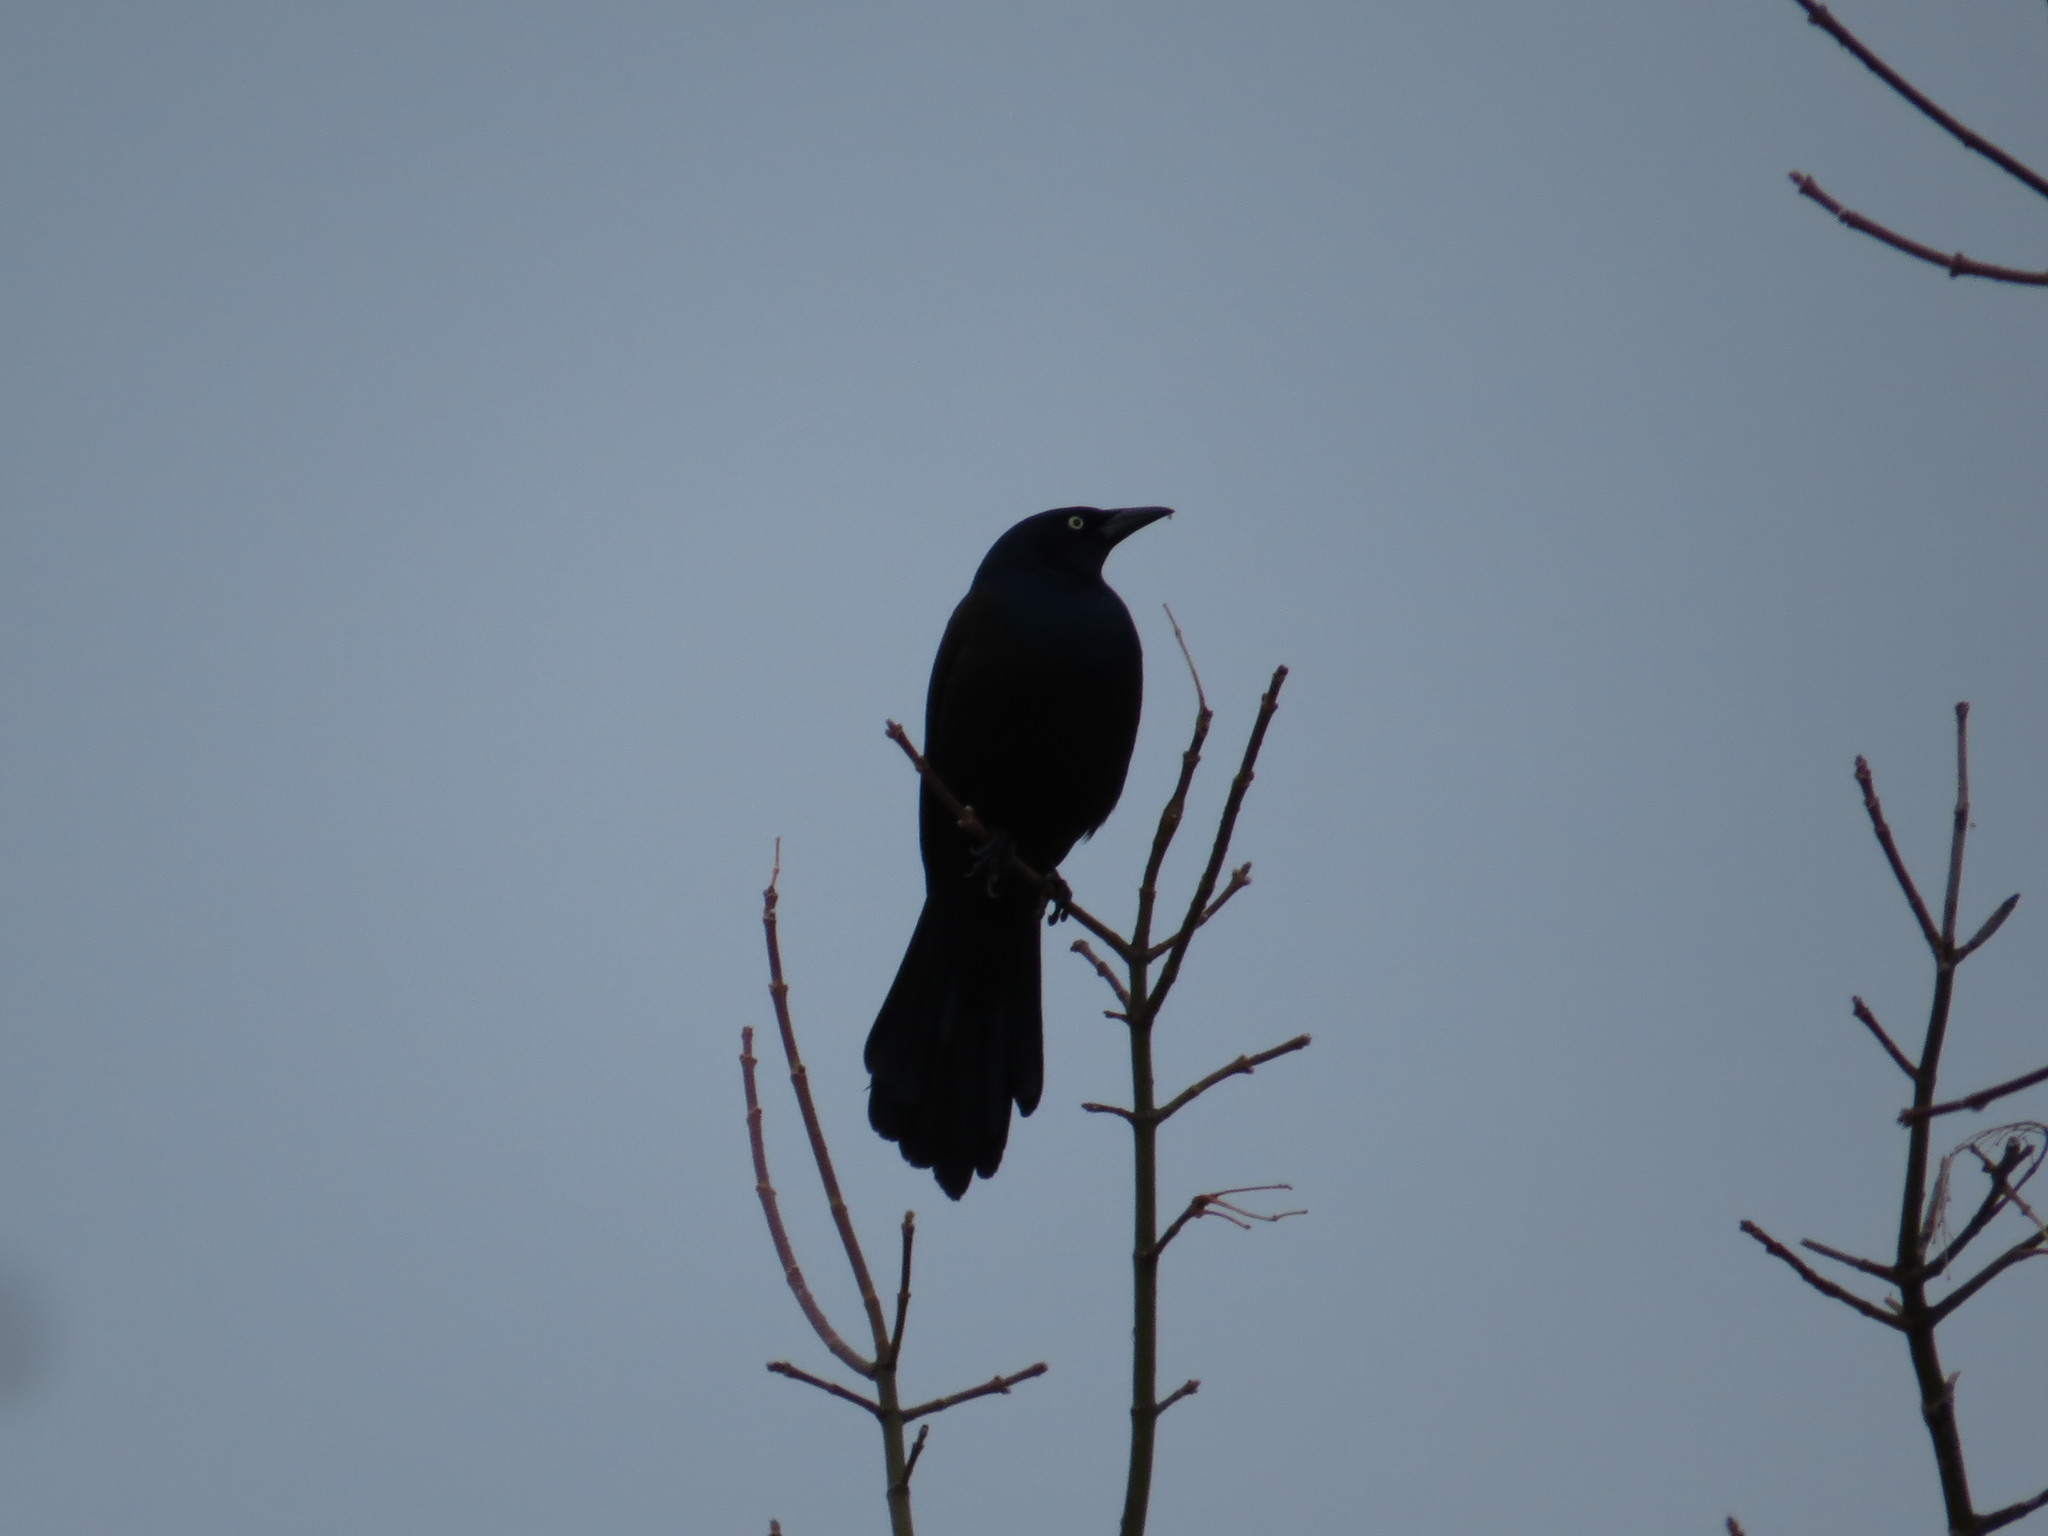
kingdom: Animalia
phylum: Chordata
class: Aves
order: Passeriformes
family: Icteridae
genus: Quiscalus
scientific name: Quiscalus quiscula
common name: Common grackle
